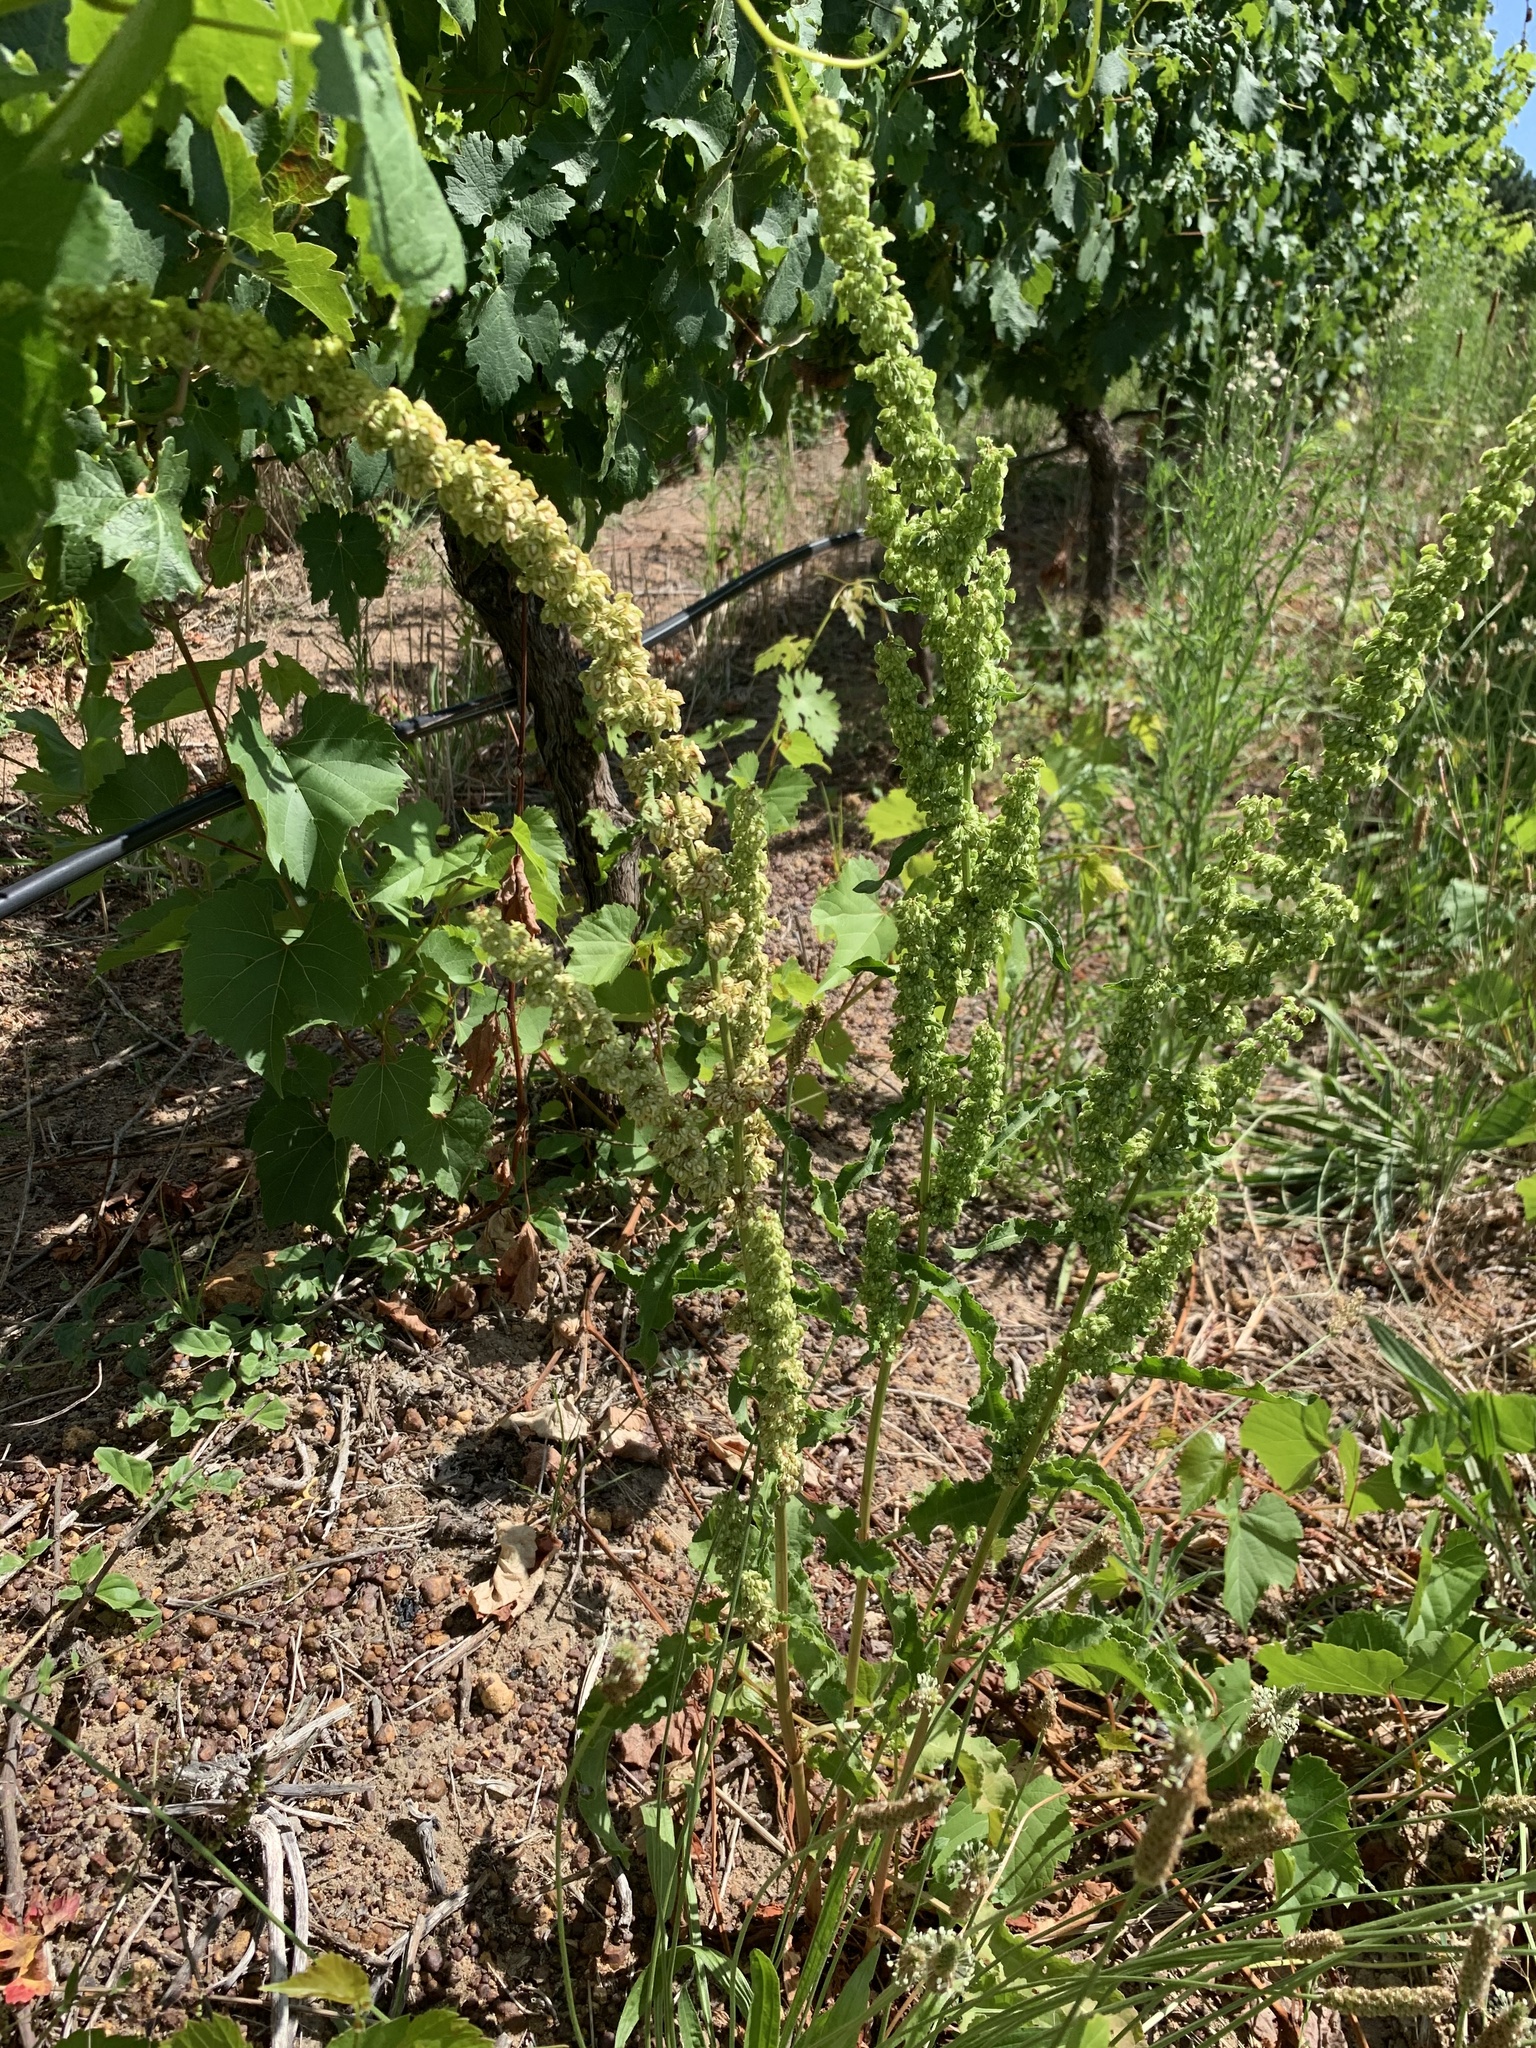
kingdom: Plantae
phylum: Tracheophyta
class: Magnoliopsida
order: Caryophyllales
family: Polygonaceae
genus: Rumex
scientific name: Rumex crispus
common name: Curled dock
